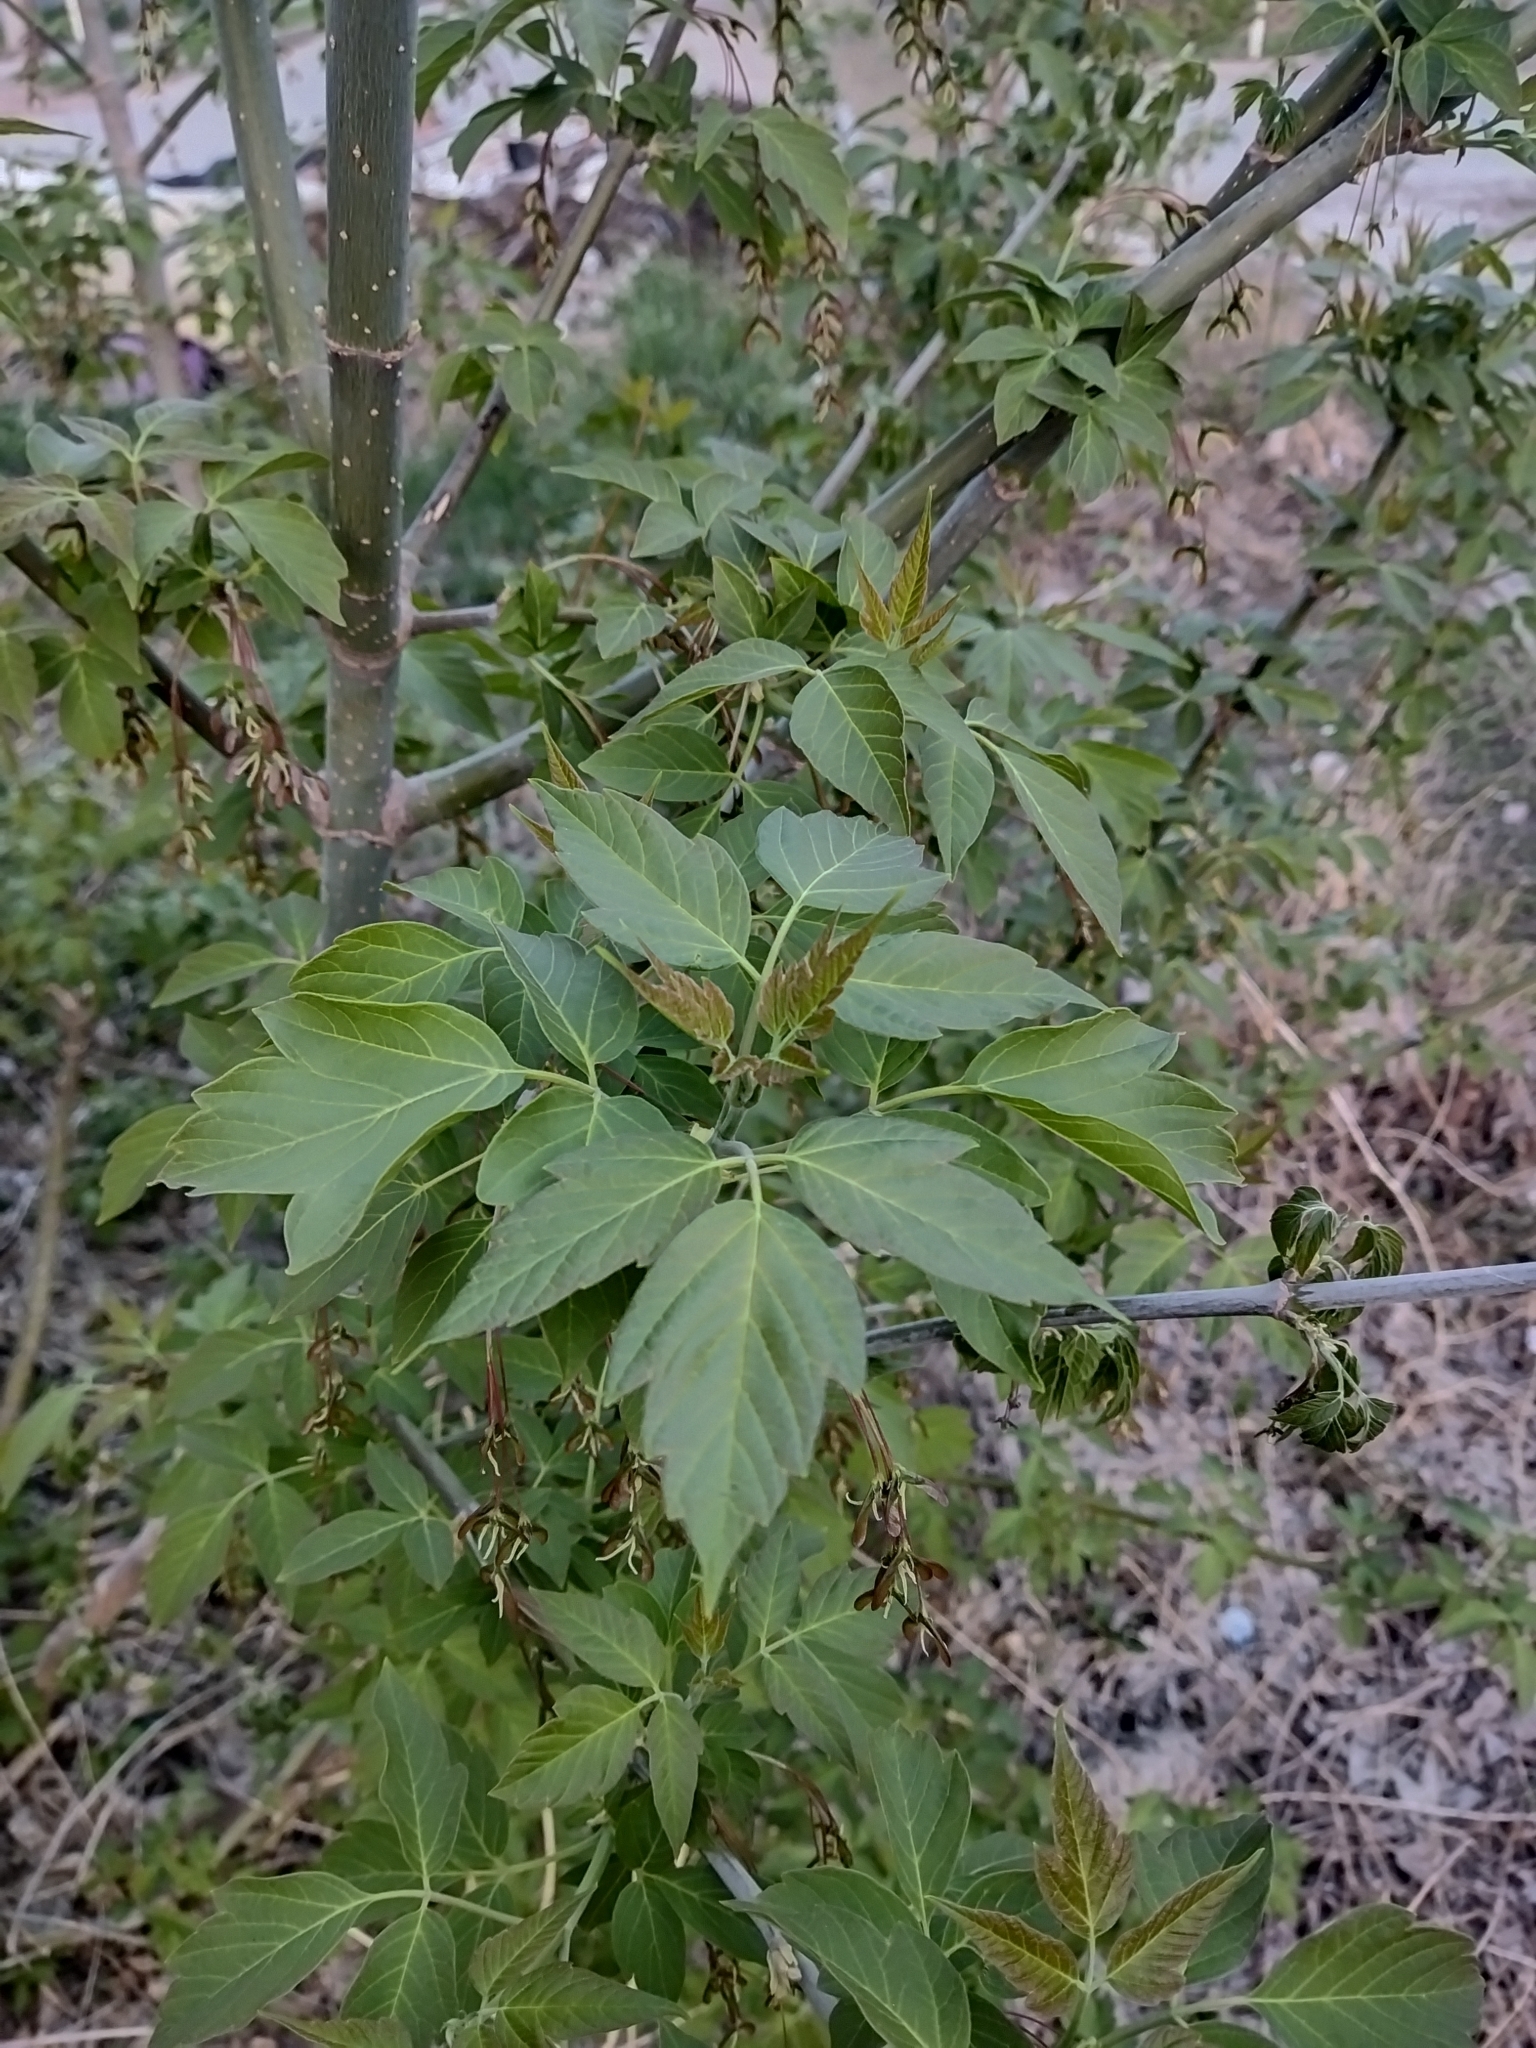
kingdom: Plantae
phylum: Tracheophyta
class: Magnoliopsida
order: Sapindales
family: Sapindaceae
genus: Acer
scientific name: Acer negundo
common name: Ashleaf maple
